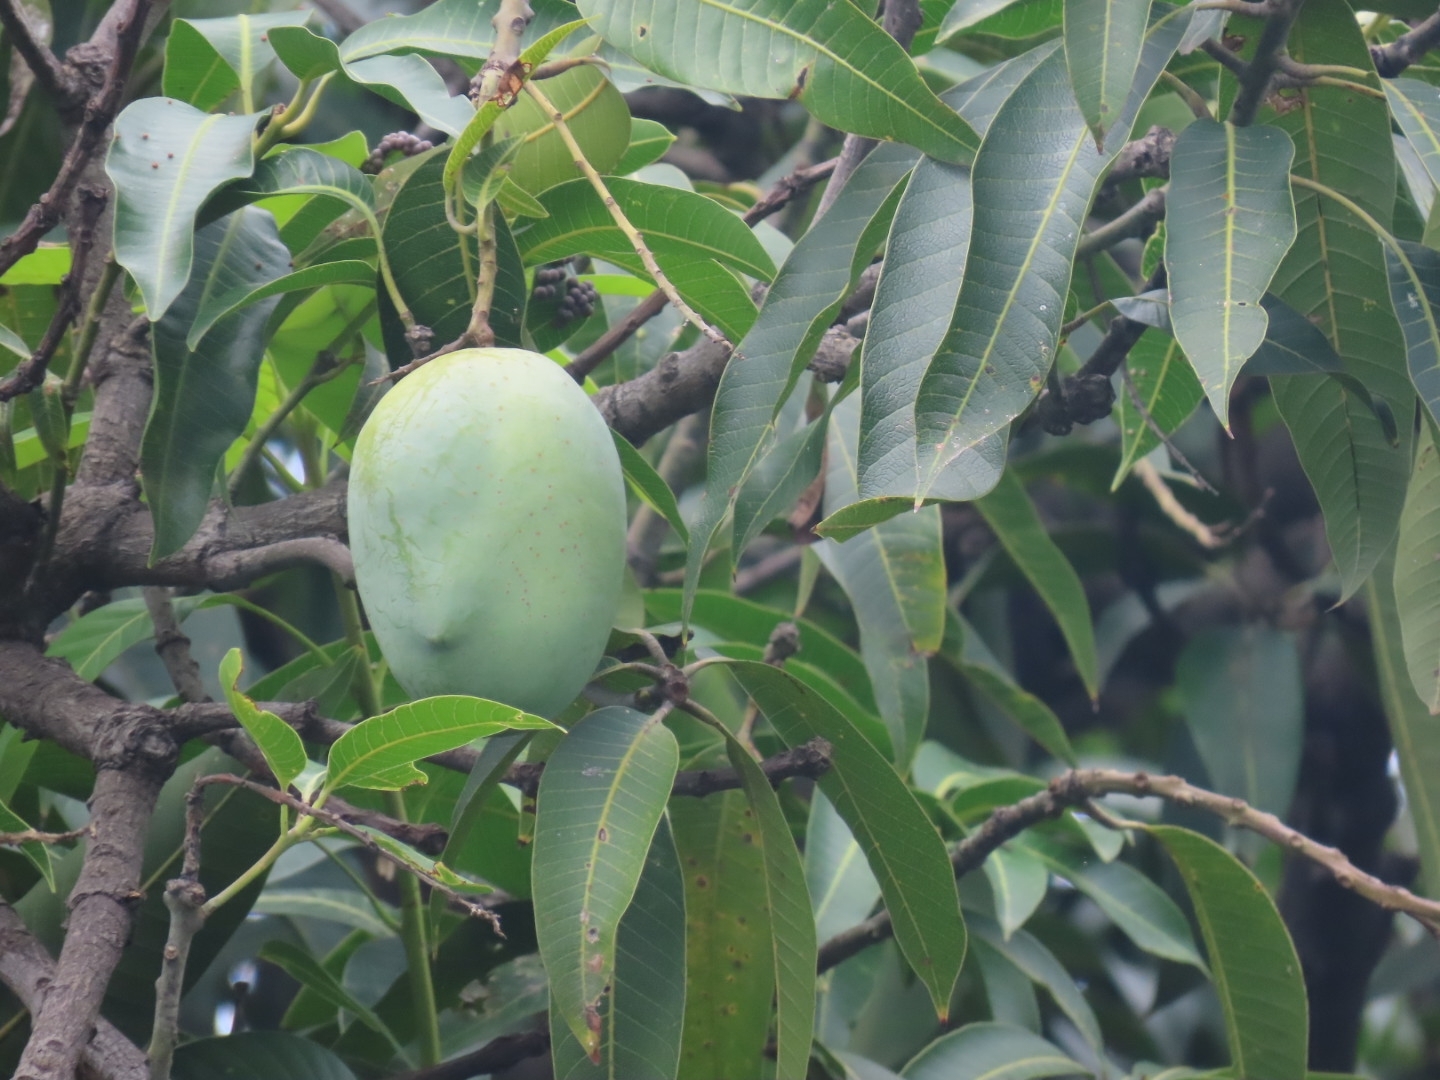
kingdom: Plantae
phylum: Tracheophyta
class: Magnoliopsida
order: Sapindales
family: Anacardiaceae
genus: Mangifera
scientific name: Mangifera indica
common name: Mango
